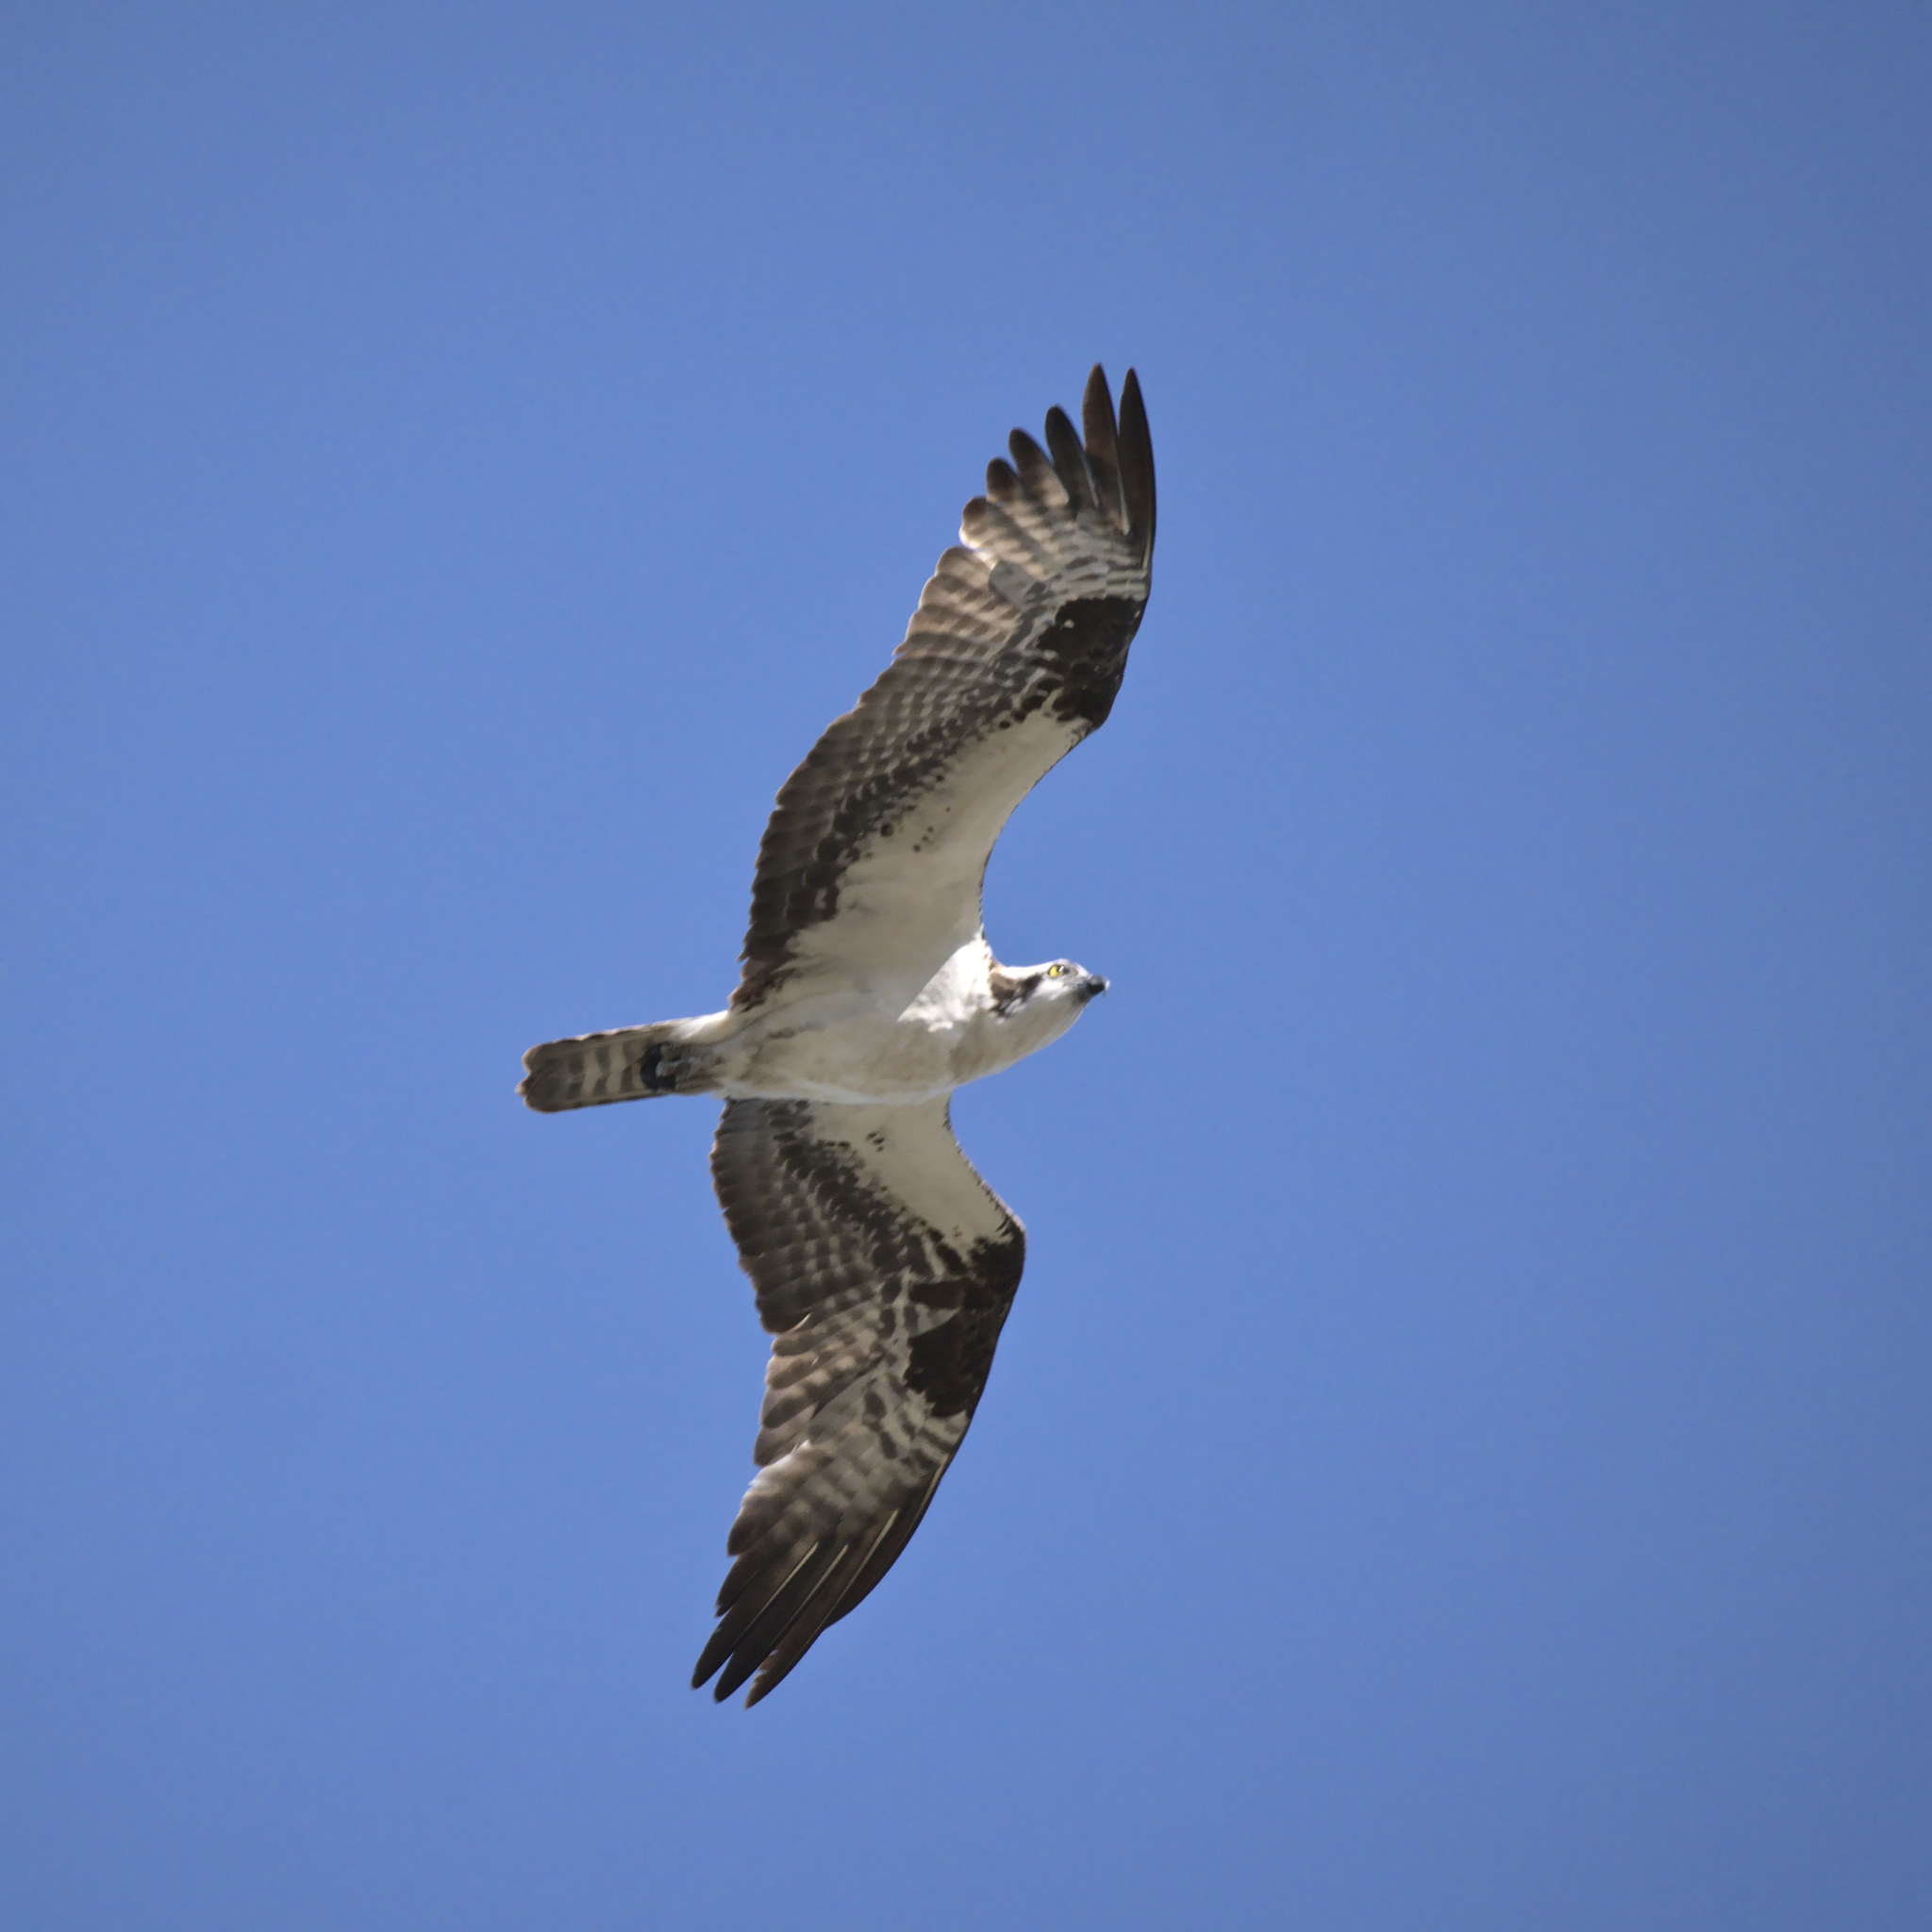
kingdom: Animalia
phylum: Chordata
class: Aves
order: Accipitriformes
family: Pandionidae
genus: Pandion
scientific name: Pandion haliaetus
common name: Osprey
